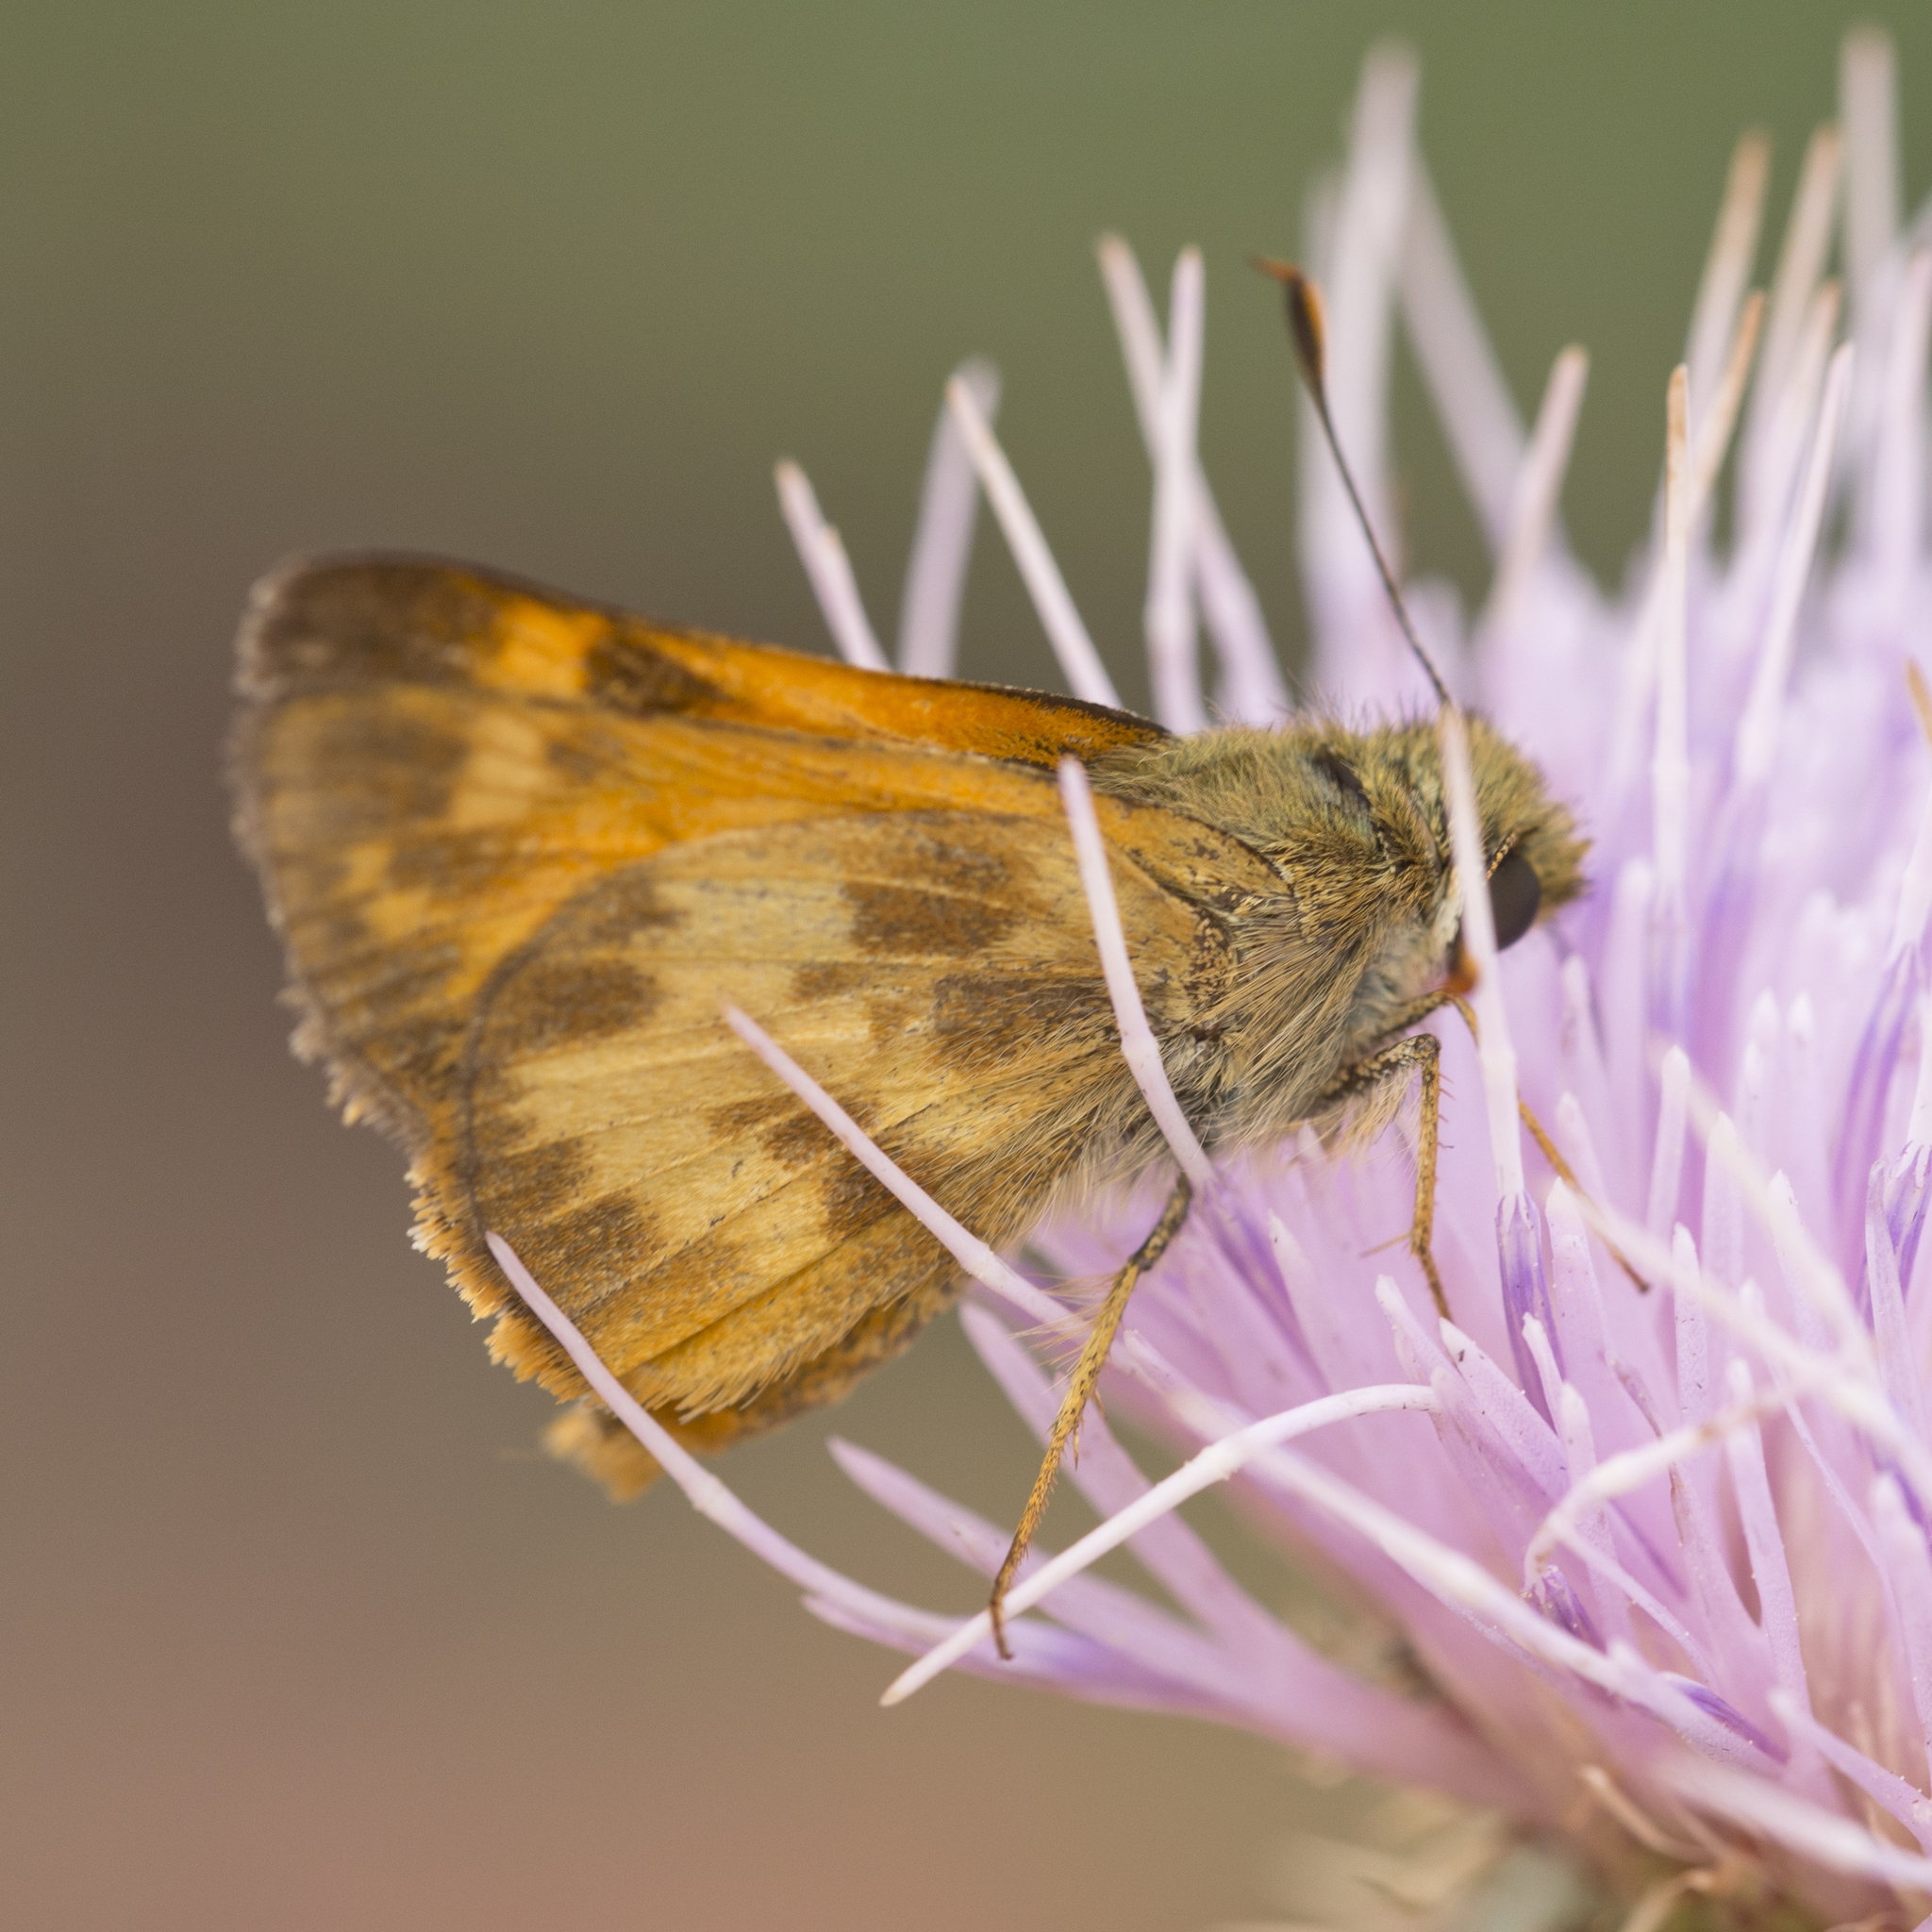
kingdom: Animalia
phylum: Arthropoda
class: Insecta
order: Lepidoptera
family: Hesperiidae
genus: Lon
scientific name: Lon taxiles
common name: Taxiles skipper
